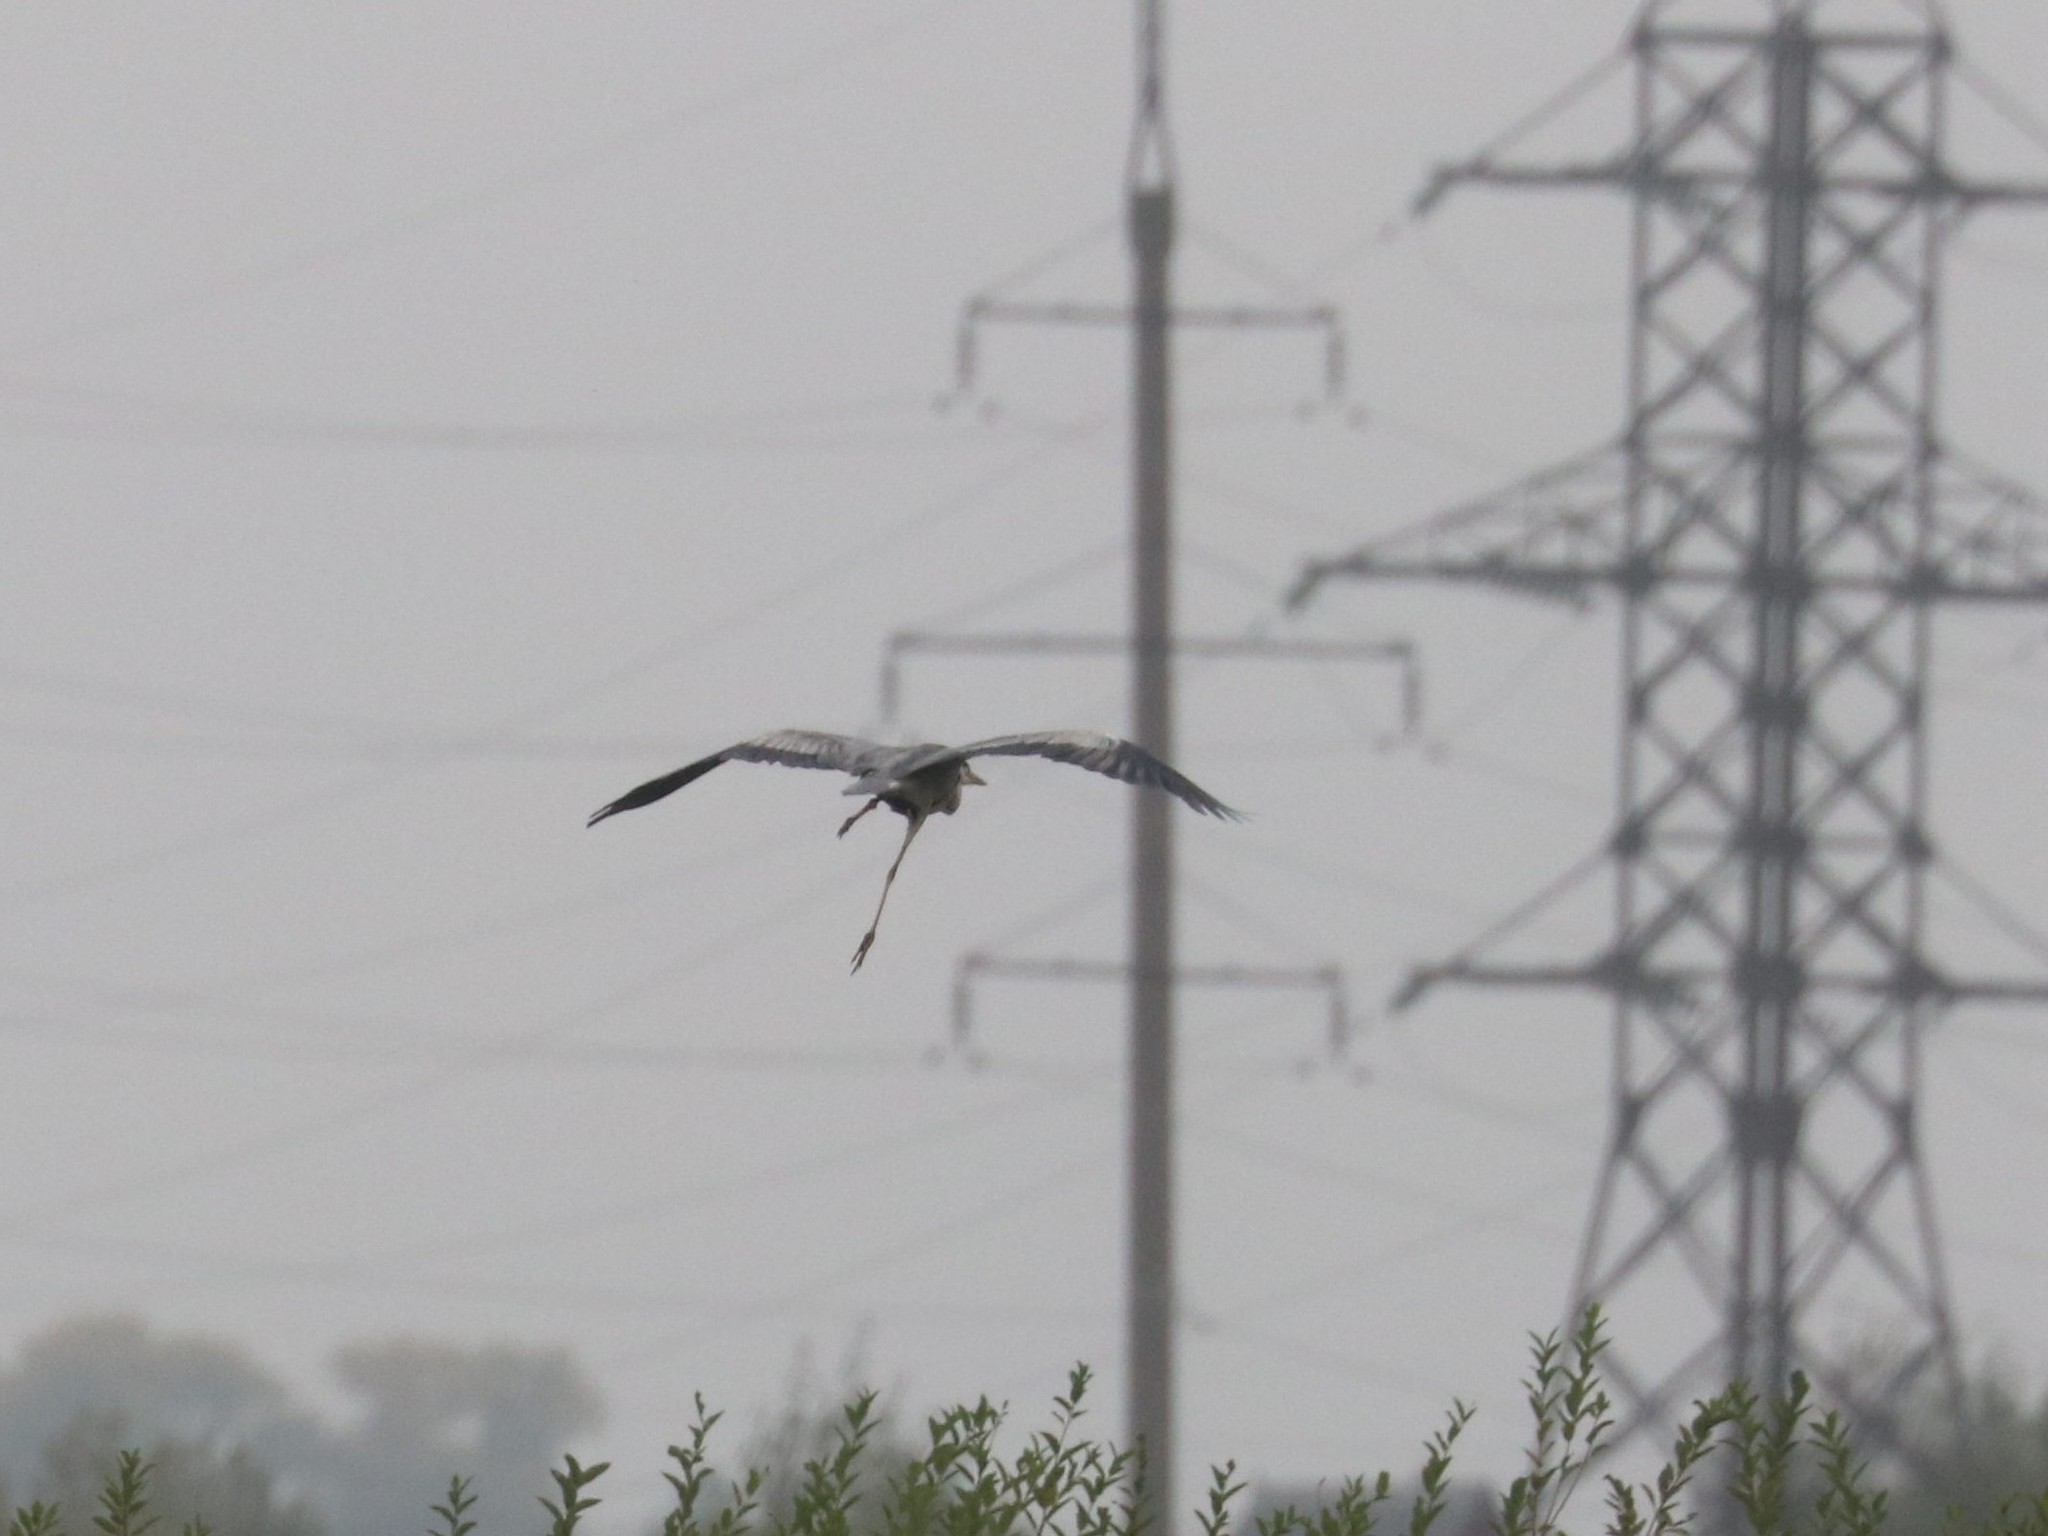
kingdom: Animalia
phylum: Chordata
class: Aves
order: Pelecaniformes
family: Ardeidae
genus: Ardea
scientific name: Ardea cinerea
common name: Grey heron
